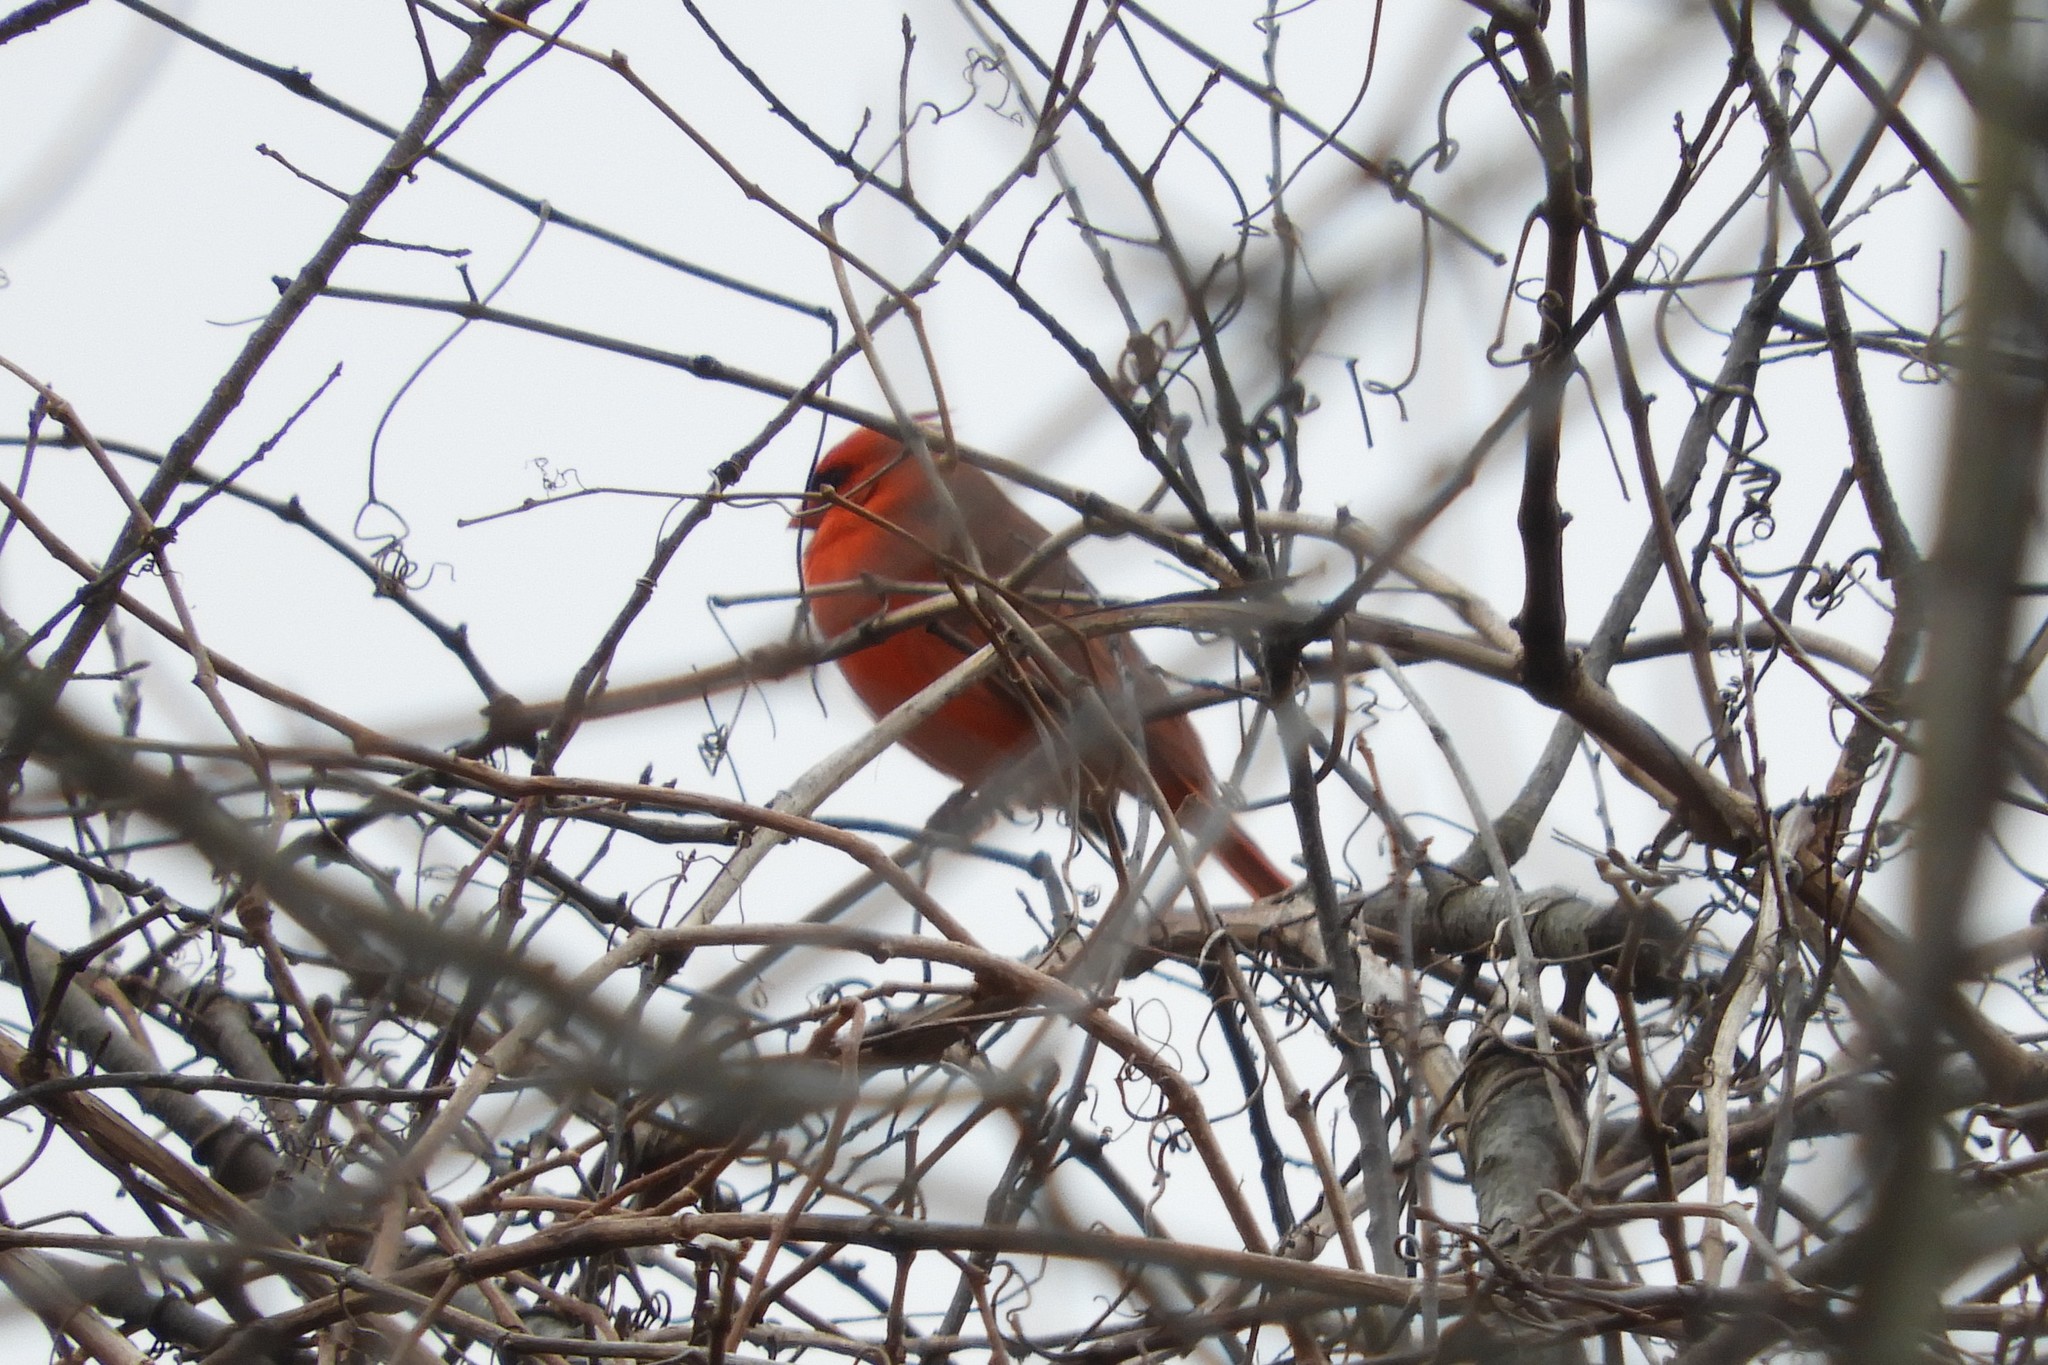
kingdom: Animalia
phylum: Chordata
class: Aves
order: Passeriformes
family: Cardinalidae
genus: Cardinalis
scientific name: Cardinalis cardinalis
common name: Northern cardinal
